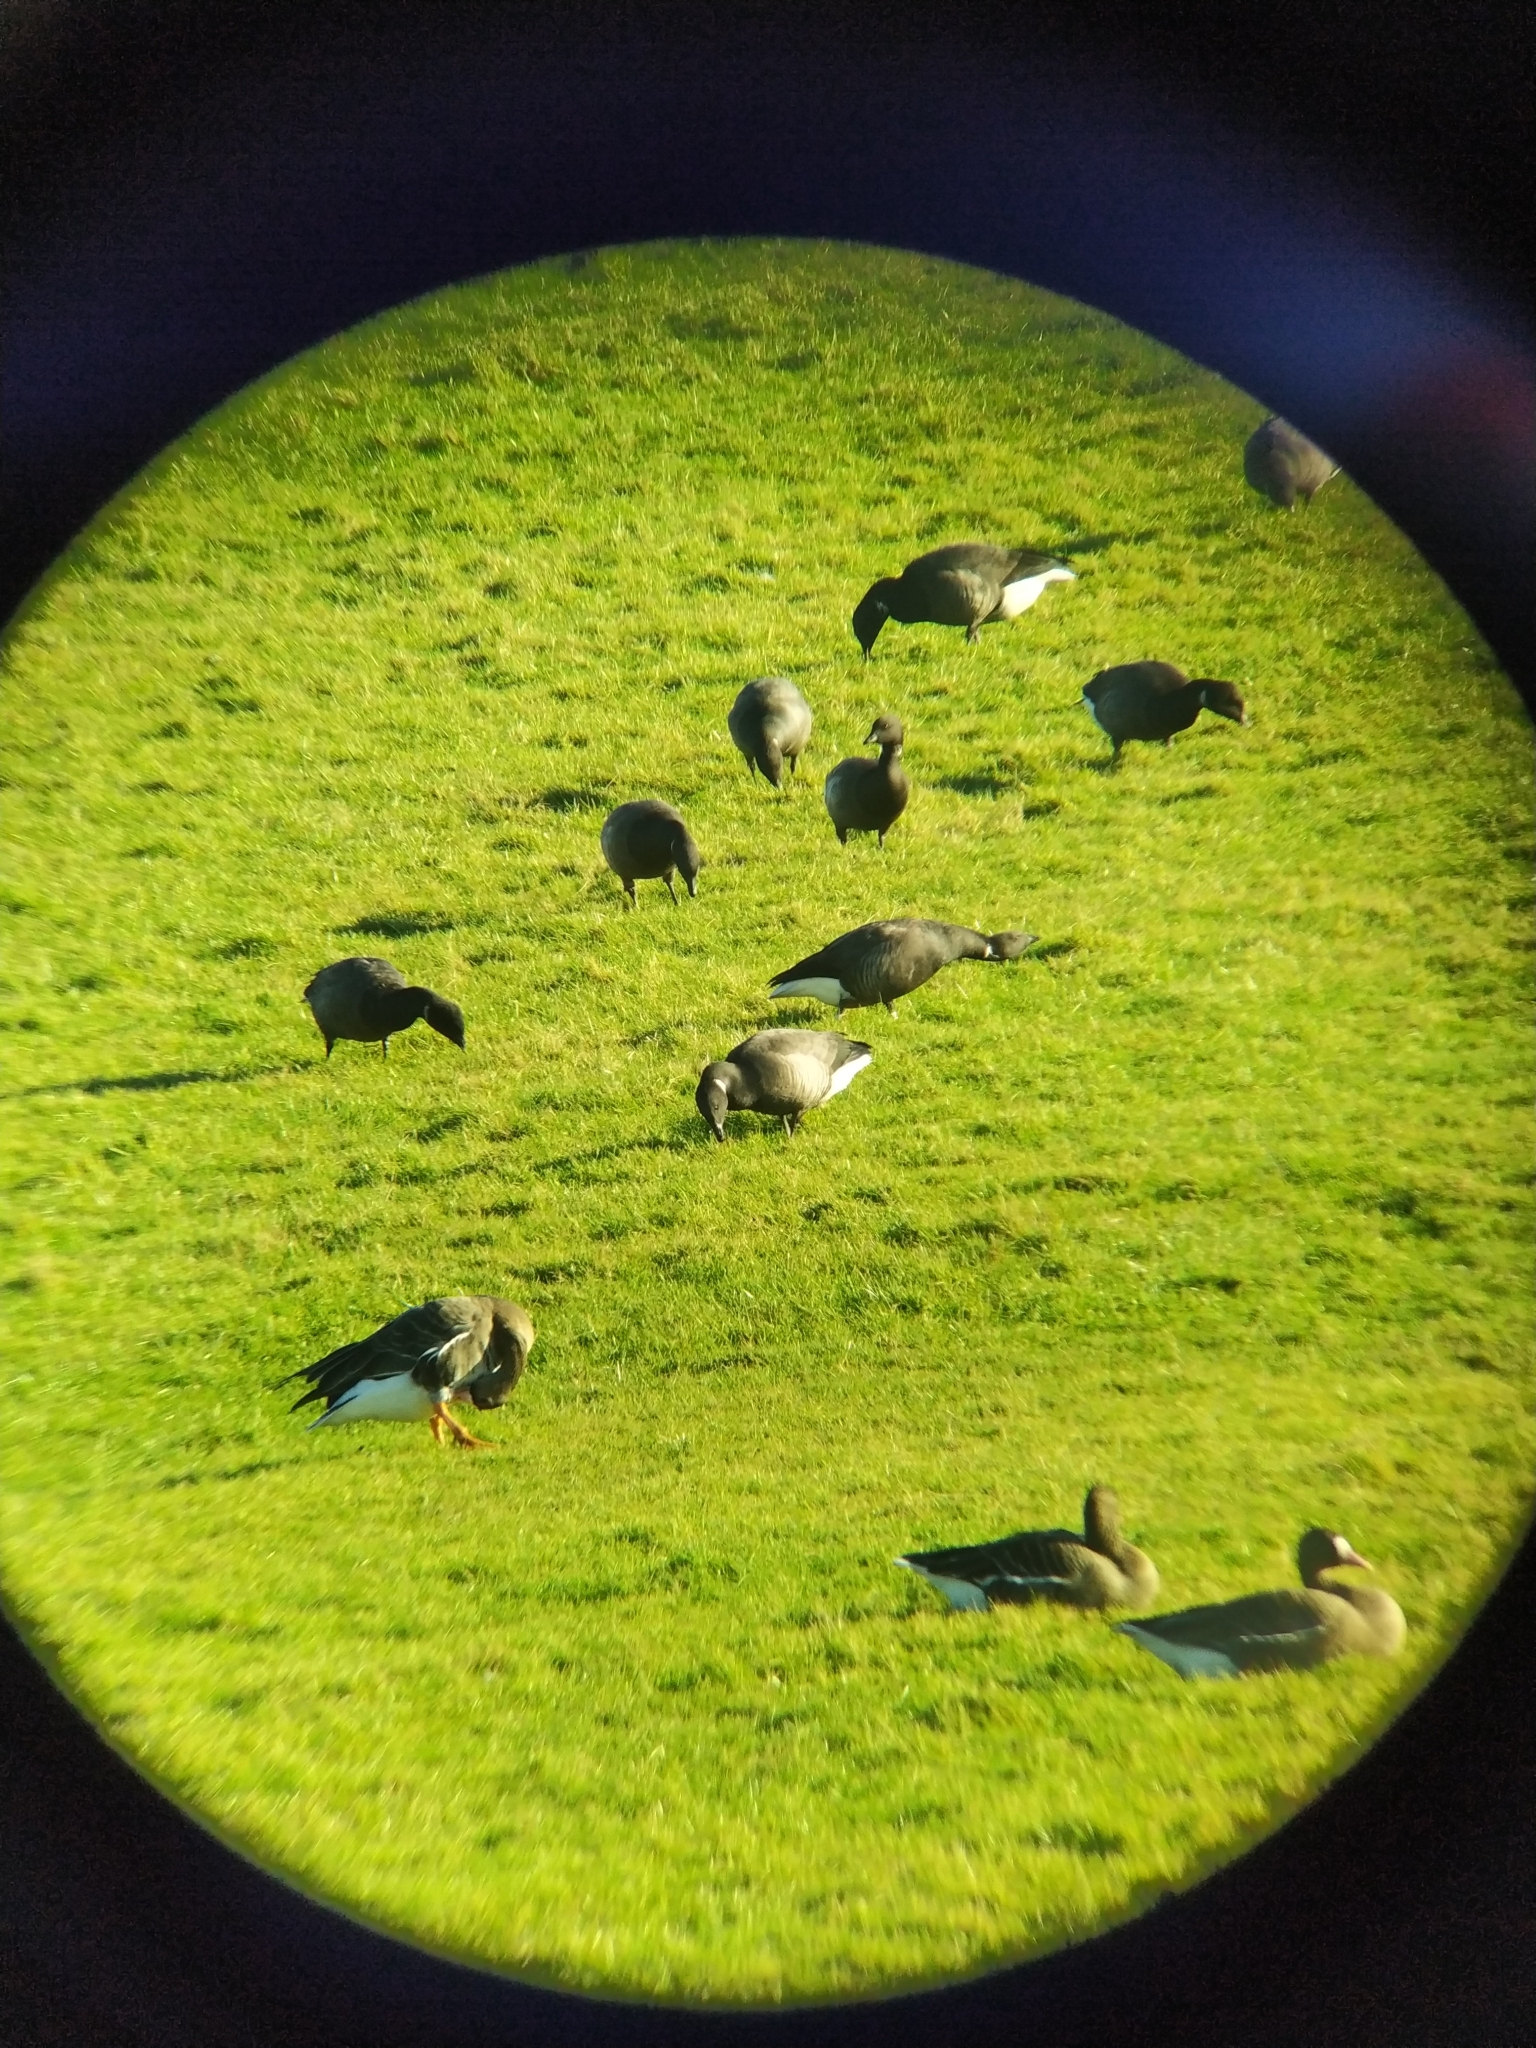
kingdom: Animalia
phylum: Chordata
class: Aves
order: Anseriformes
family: Anatidae
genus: Branta
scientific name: Branta bernicla
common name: Brant goose
